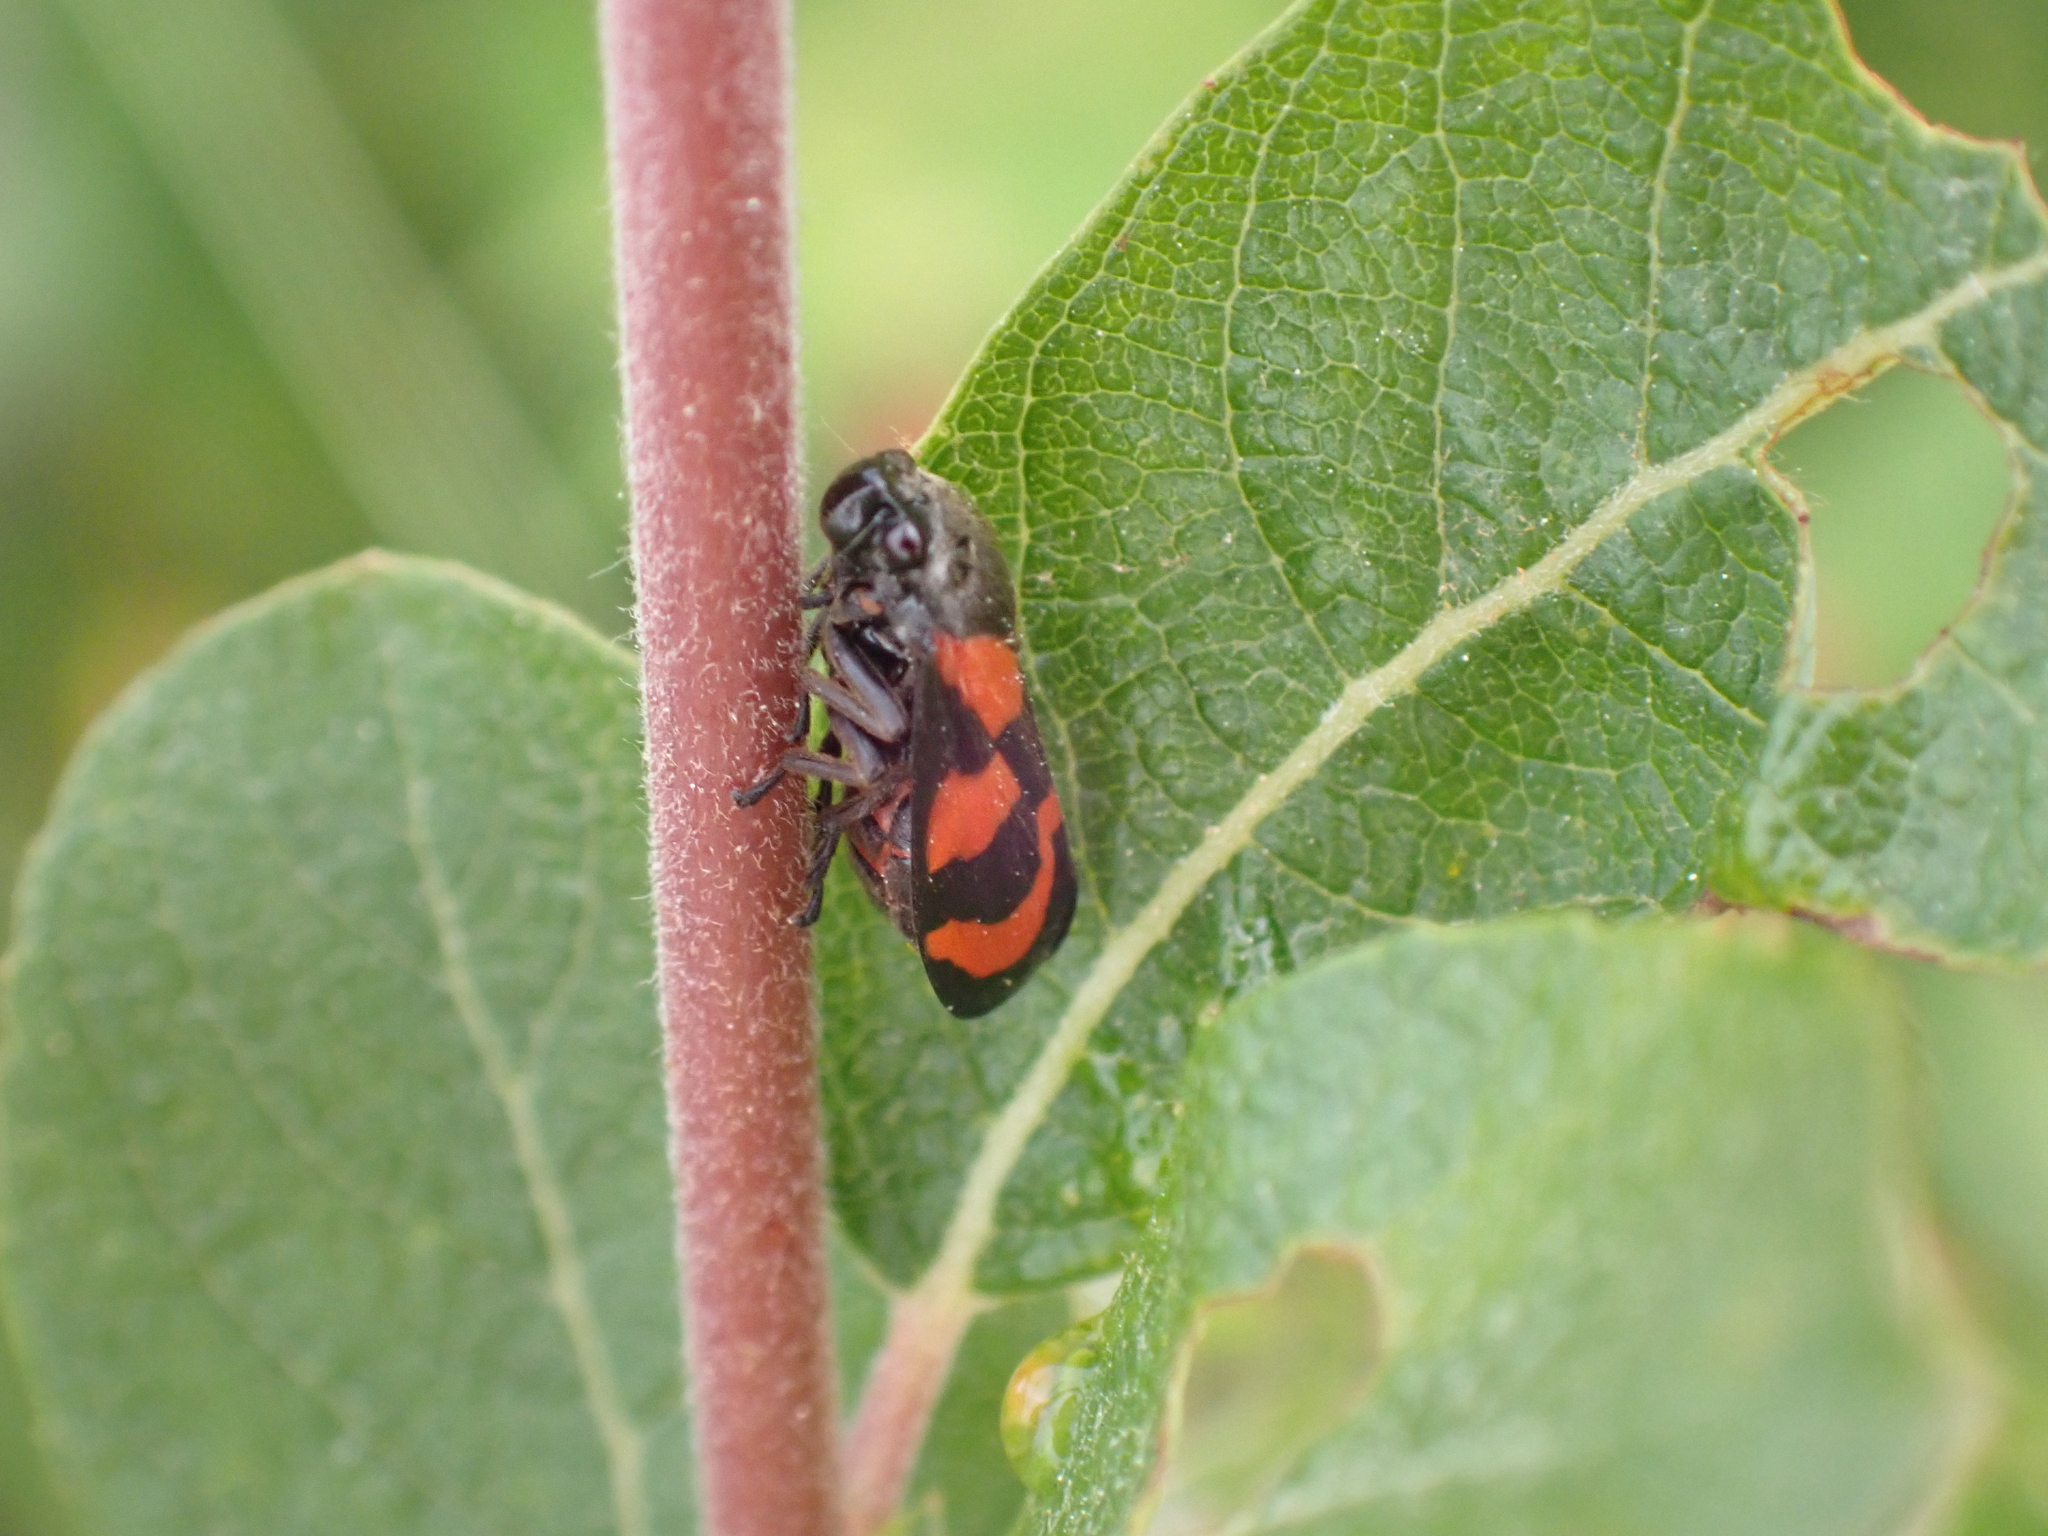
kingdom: Animalia
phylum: Arthropoda
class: Insecta
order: Hemiptera
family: Cercopidae
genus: Cercopis
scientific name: Cercopis vulnerata
